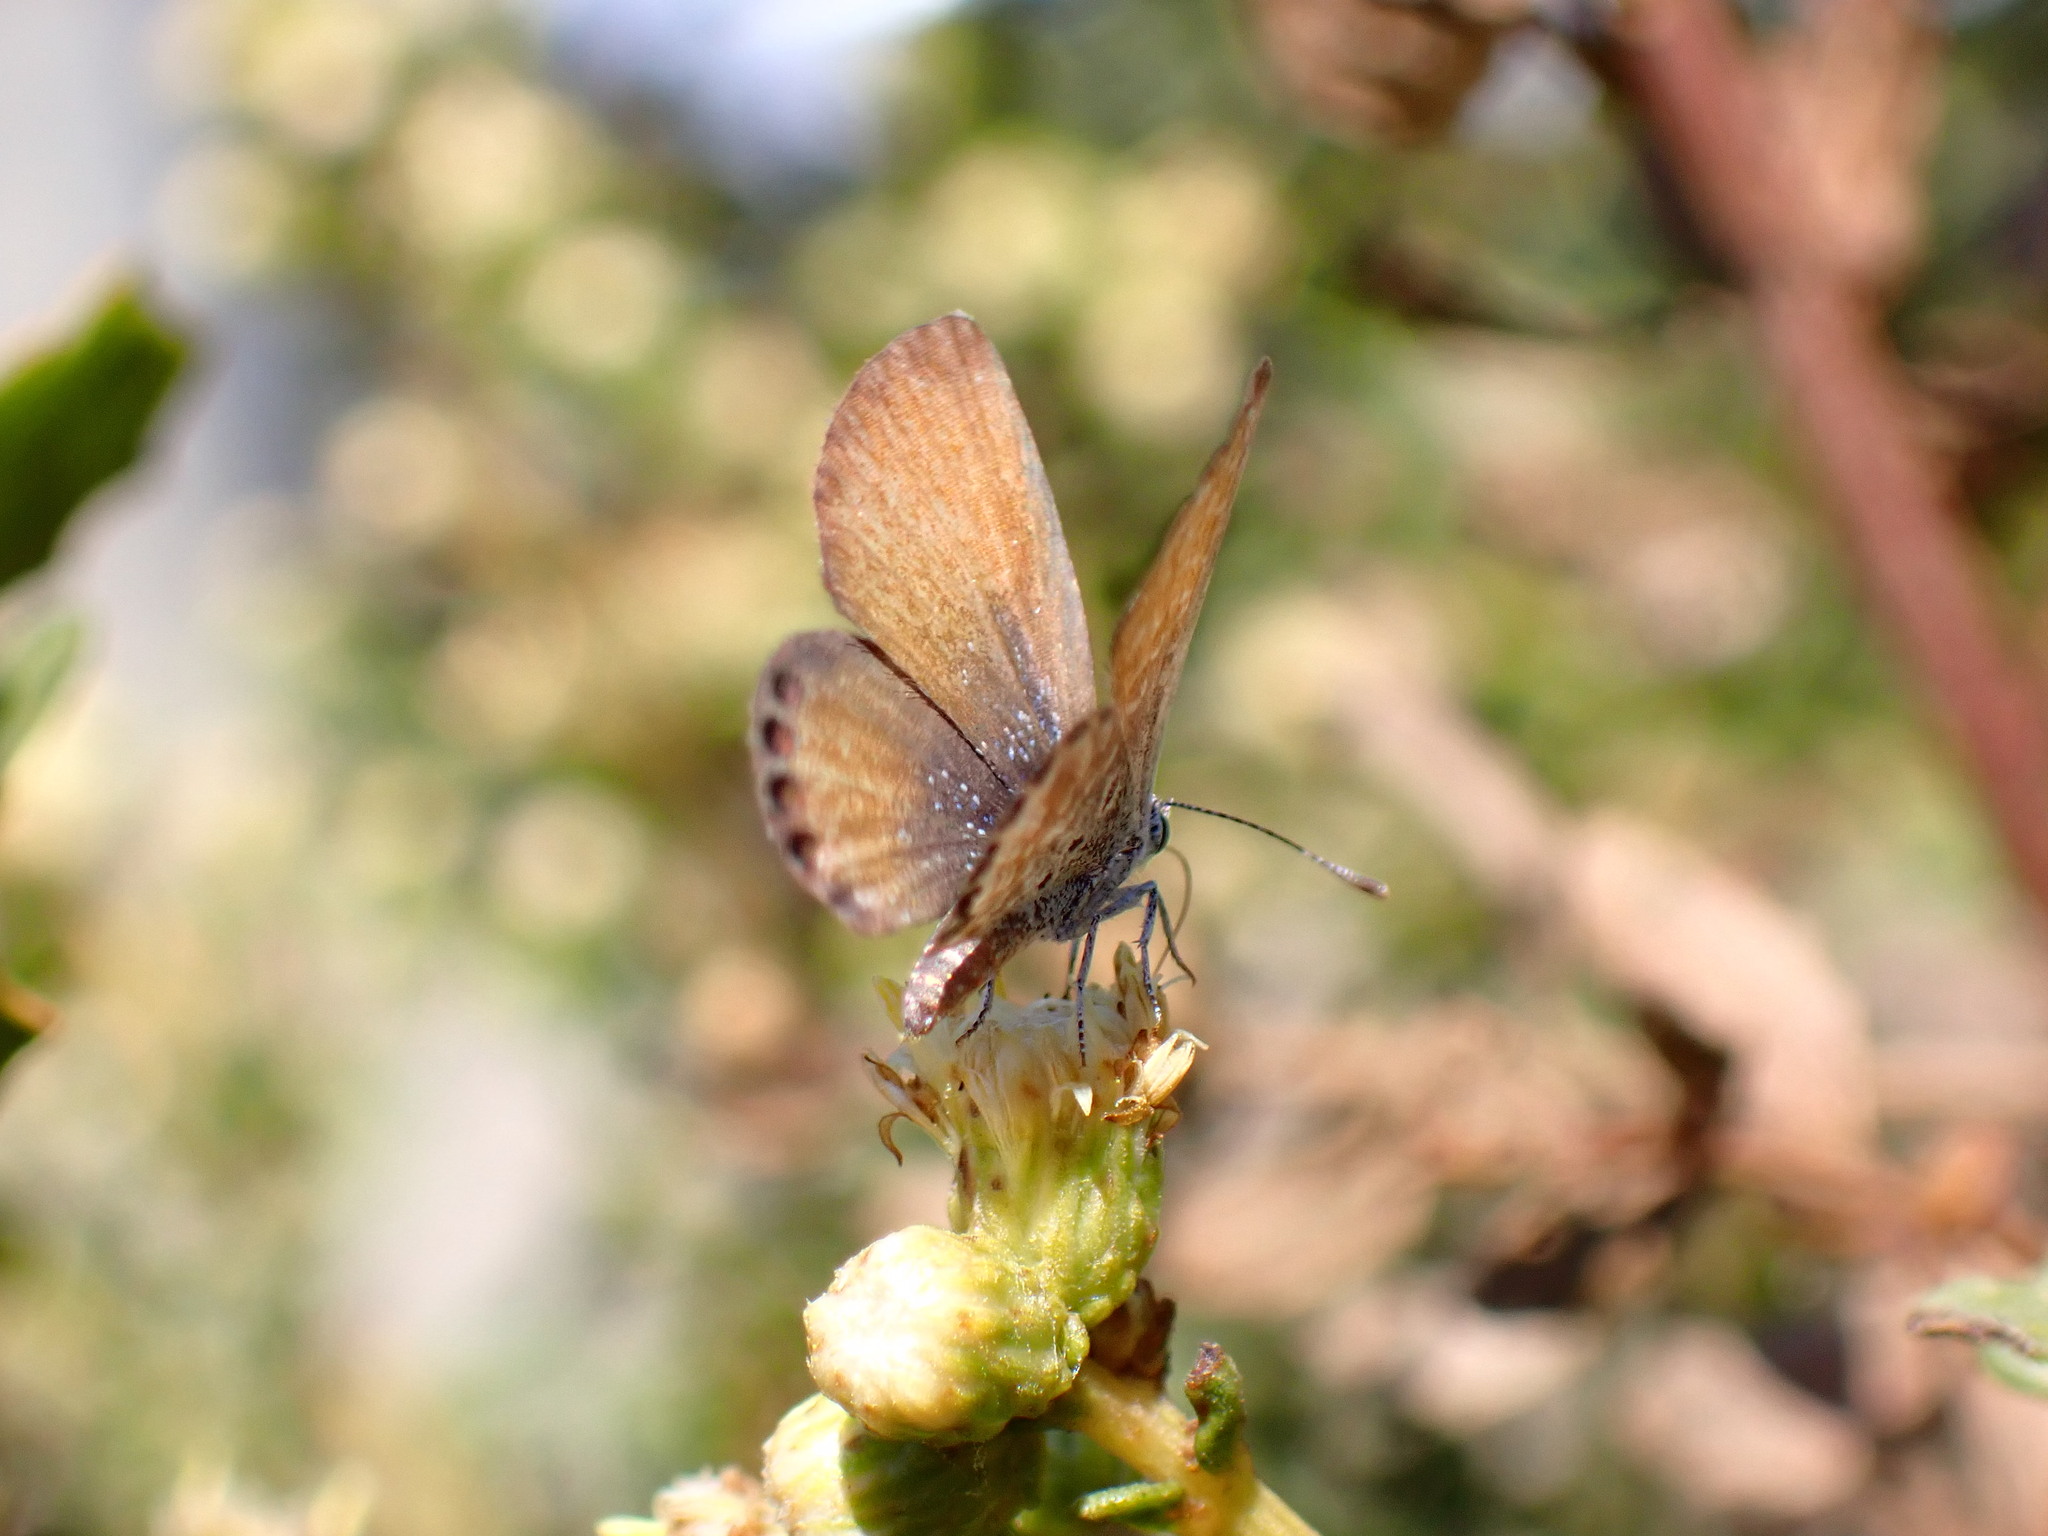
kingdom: Animalia
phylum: Arthropoda
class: Insecta
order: Lepidoptera
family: Lycaenidae
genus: Brephidium
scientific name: Brephidium exilis
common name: Pygmy blue
